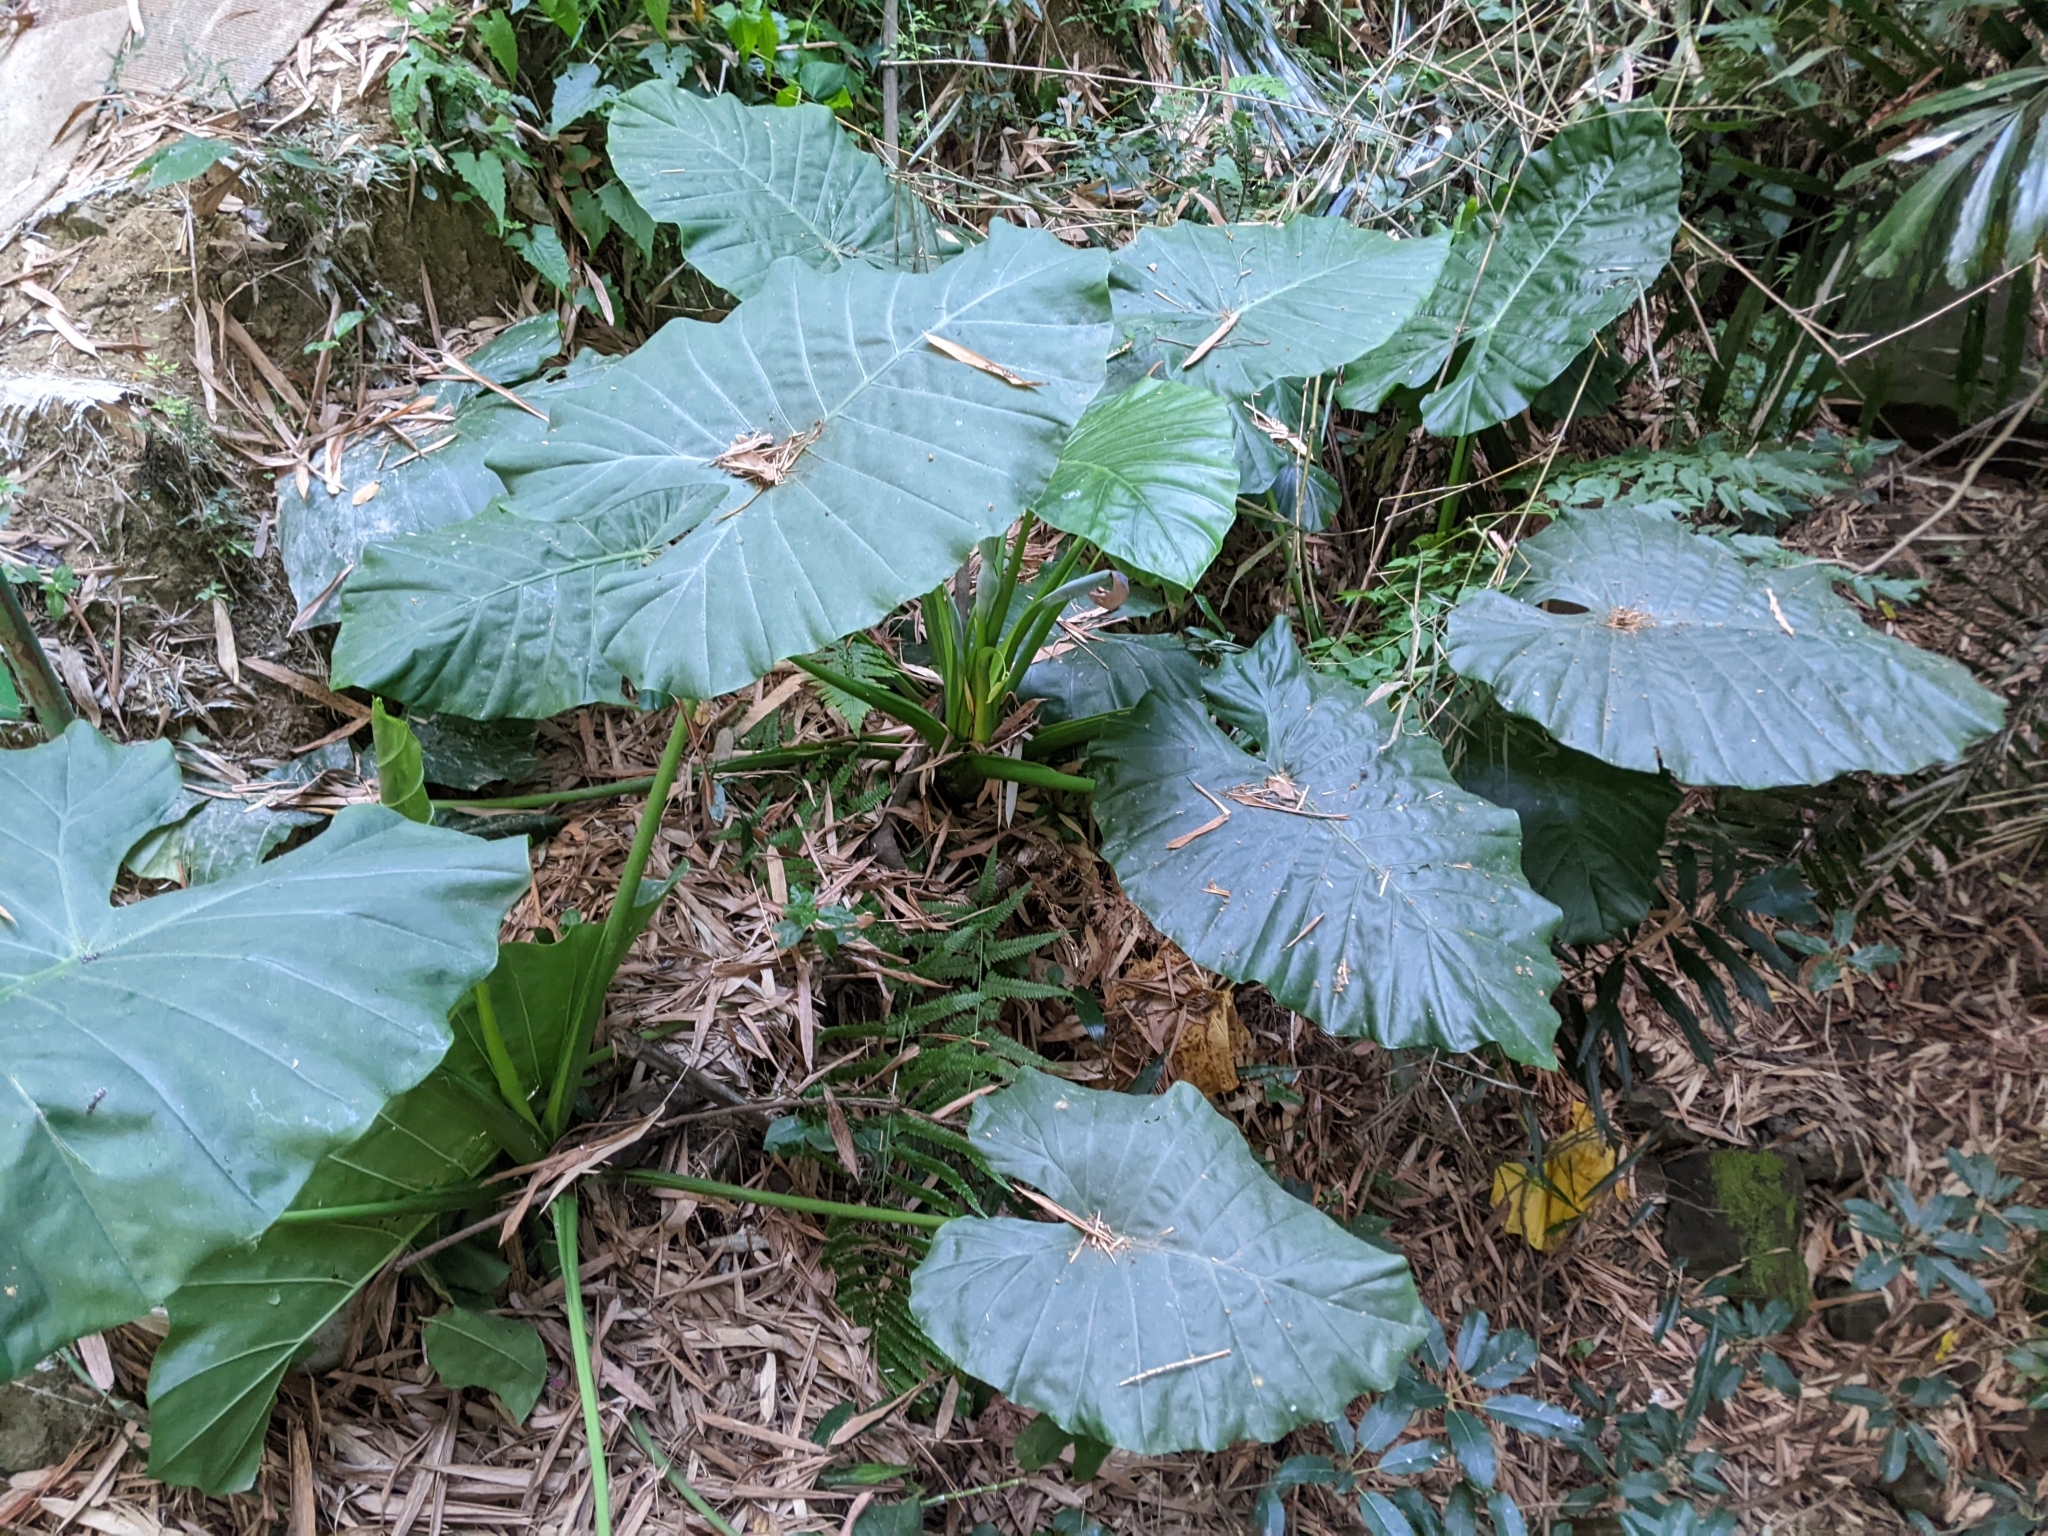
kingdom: Plantae
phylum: Tracheophyta
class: Liliopsida
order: Alismatales
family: Araceae
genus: Alocasia
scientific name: Alocasia odora
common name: Asian taro
